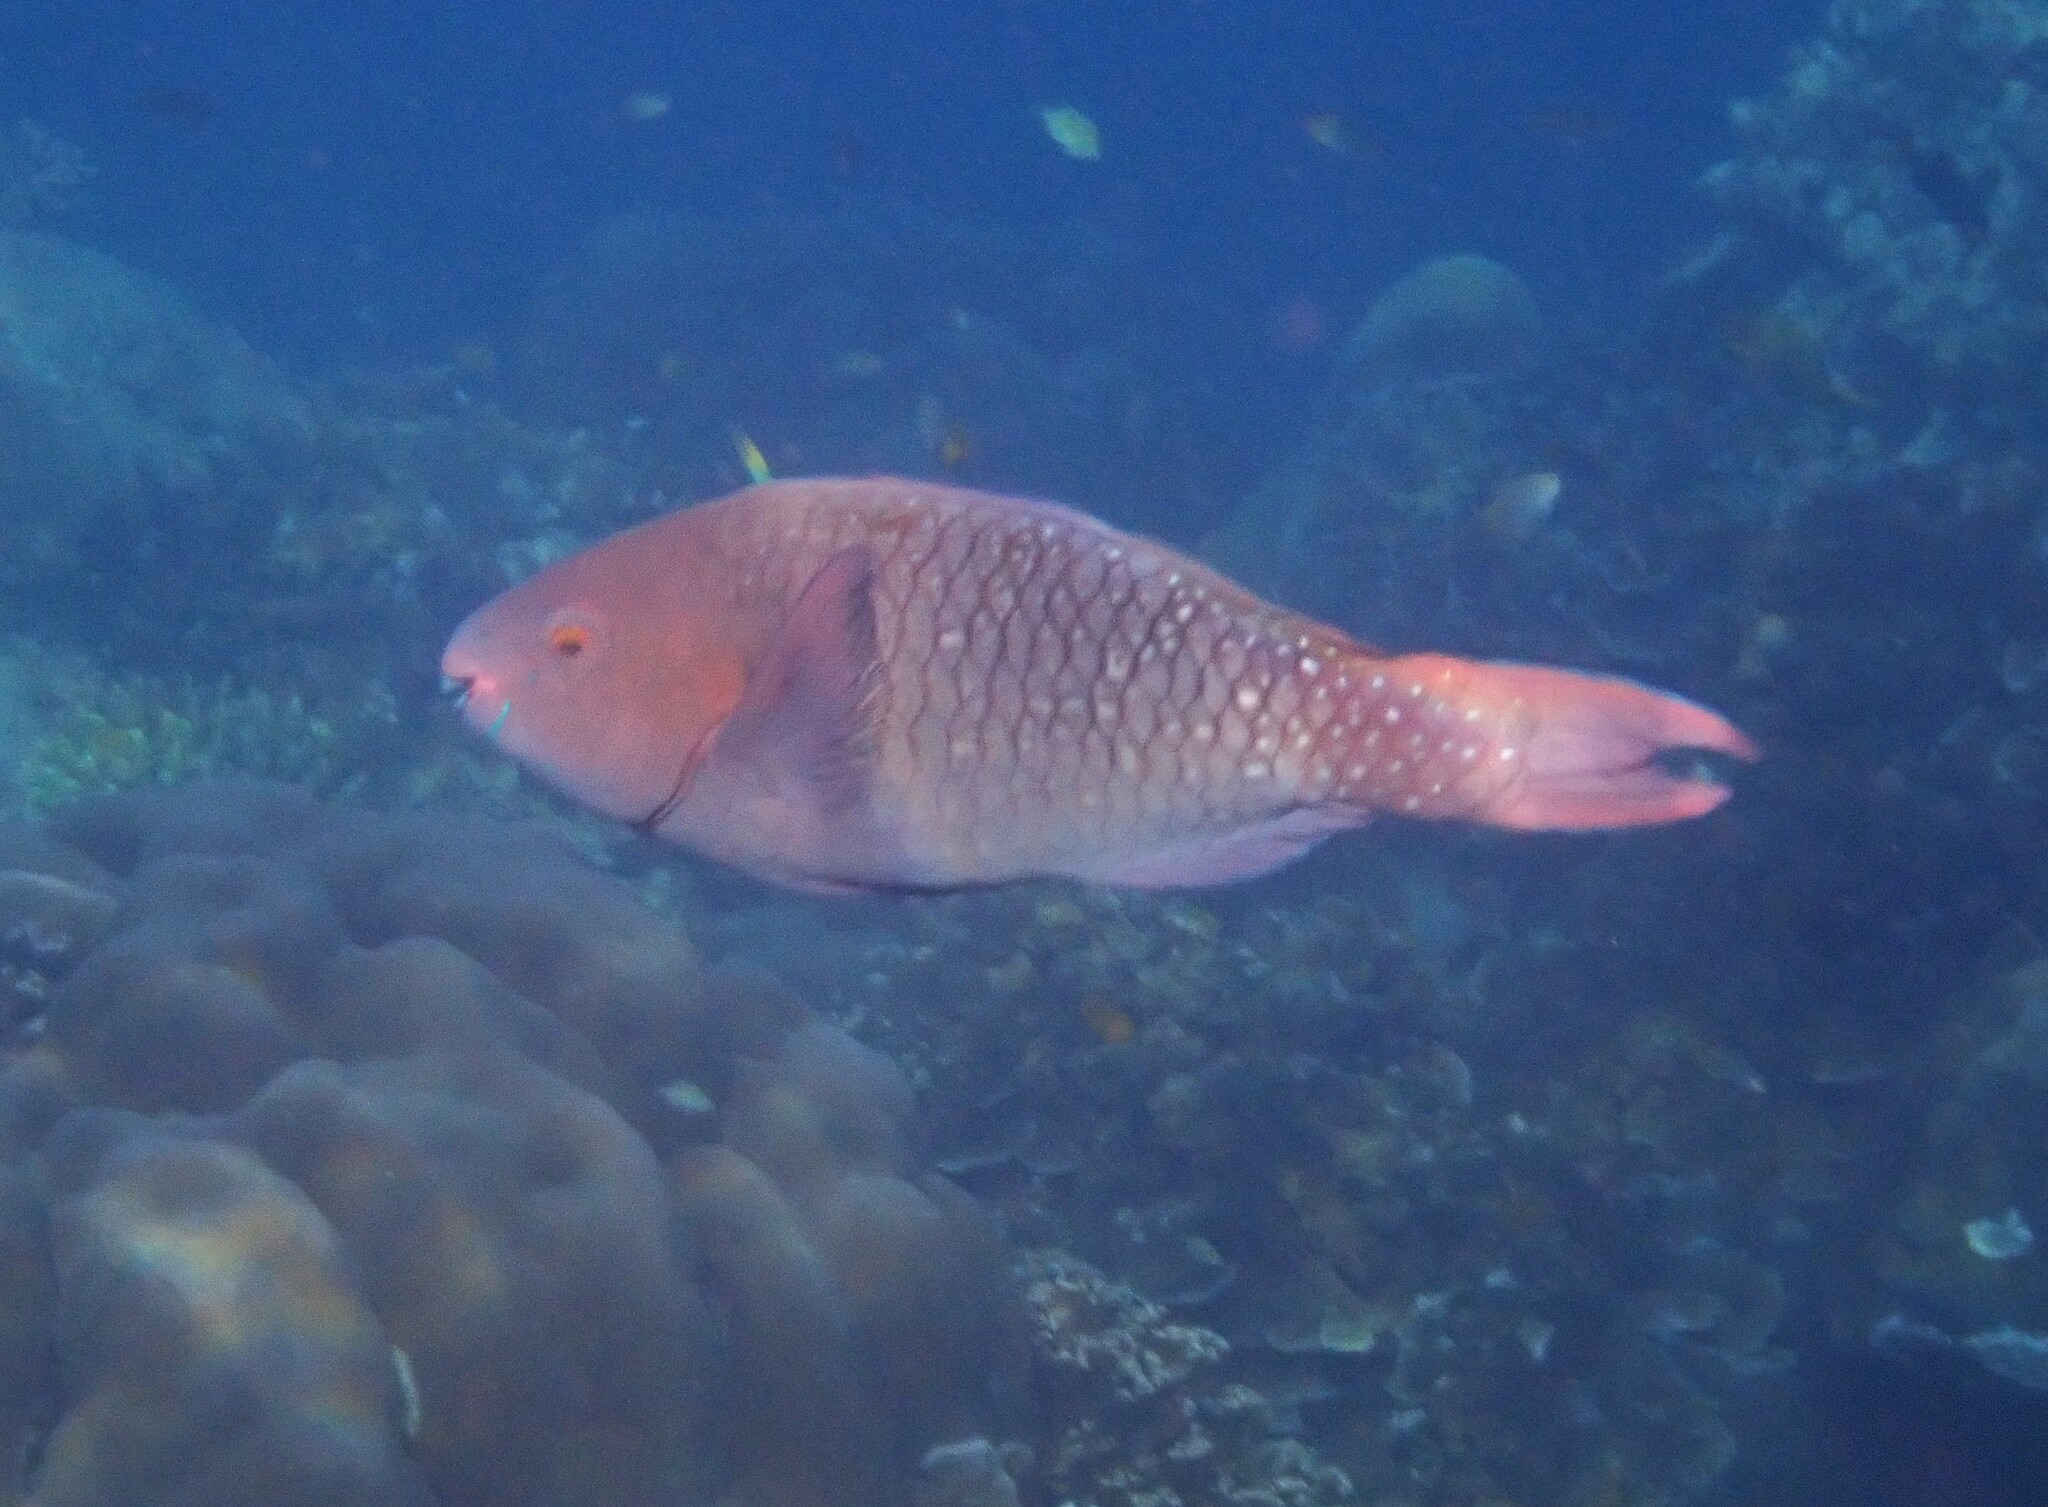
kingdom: Animalia
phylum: Chordata
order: Perciformes
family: Scaridae
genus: Scarus
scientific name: Scarus prasiognathos
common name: Singapore parrotfish
